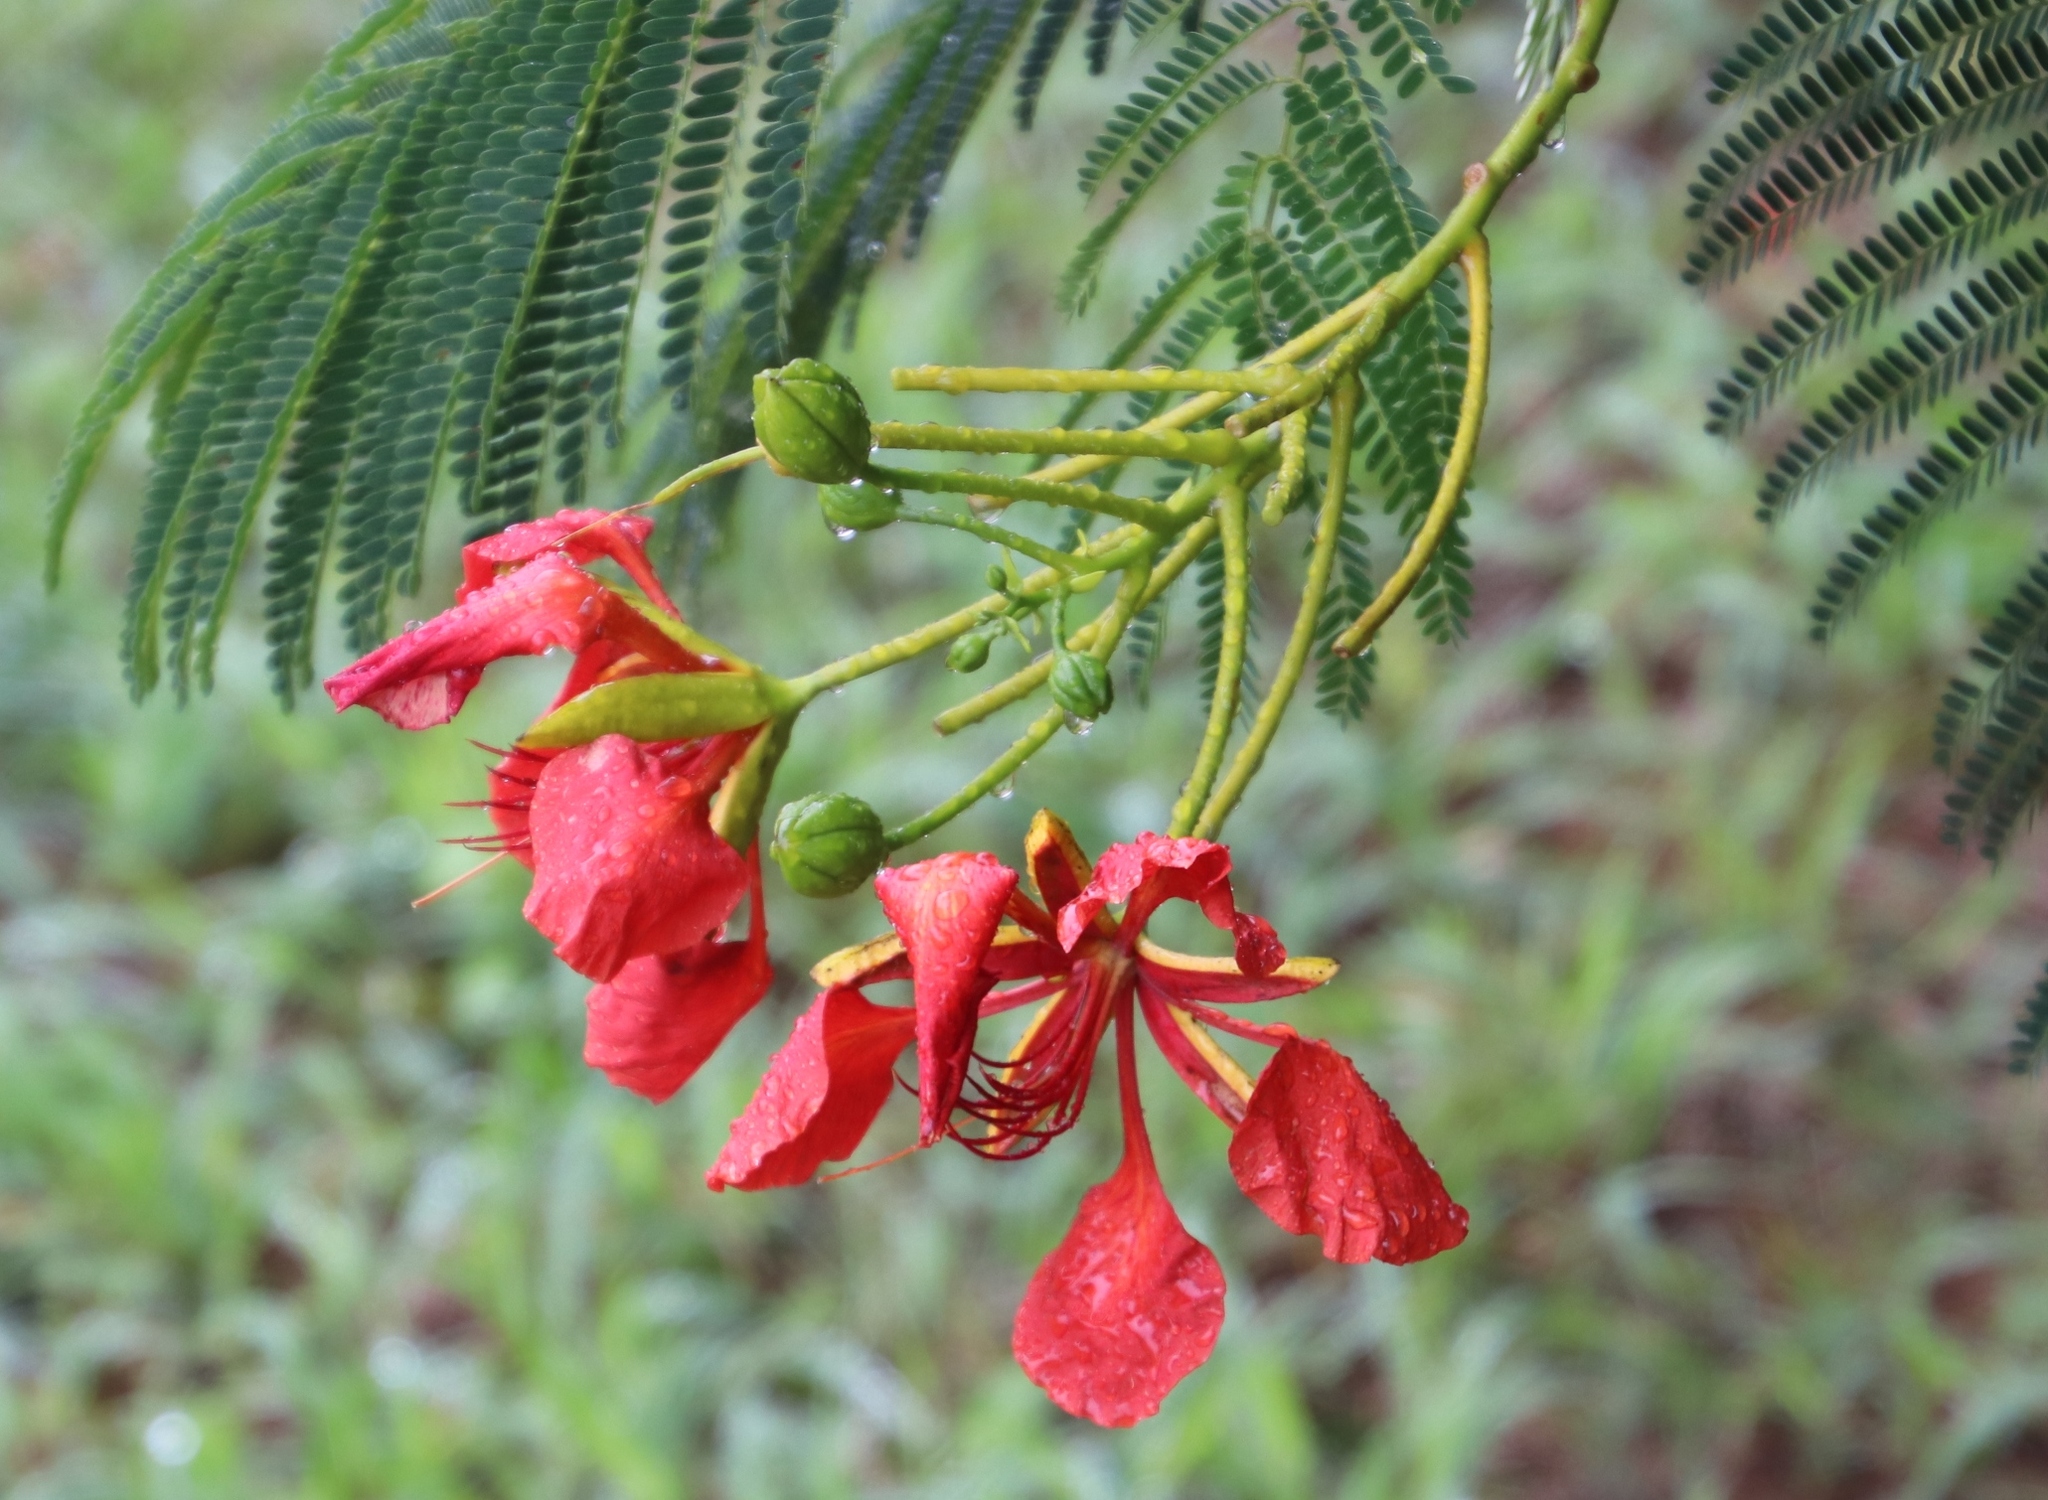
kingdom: Plantae
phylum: Tracheophyta
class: Magnoliopsida
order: Fabales
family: Fabaceae
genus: Delonix
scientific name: Delonix regia
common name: Royal poinciana
